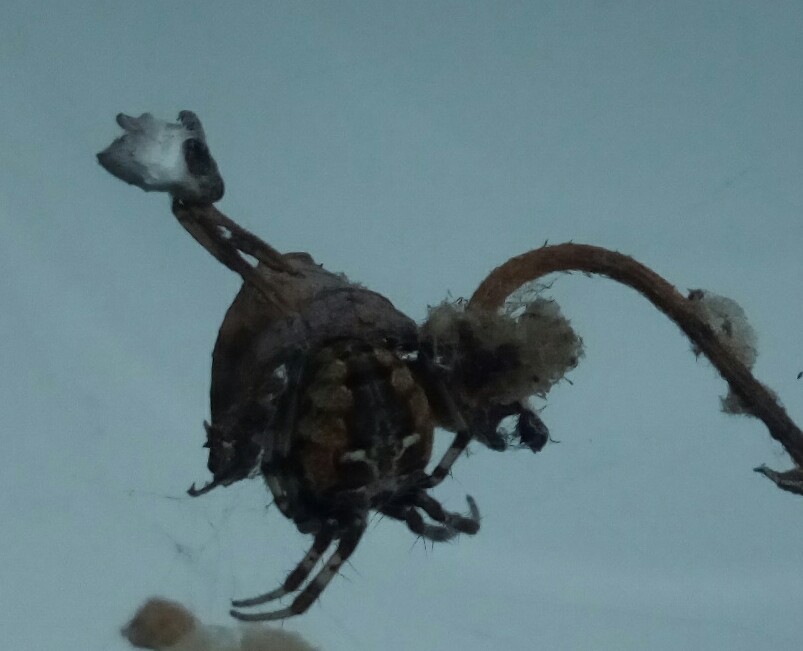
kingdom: Animalia
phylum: Arthropoda
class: Arachnida
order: Araneae
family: Araneidae
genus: Metepeira
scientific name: Metepeira labyrinthea
